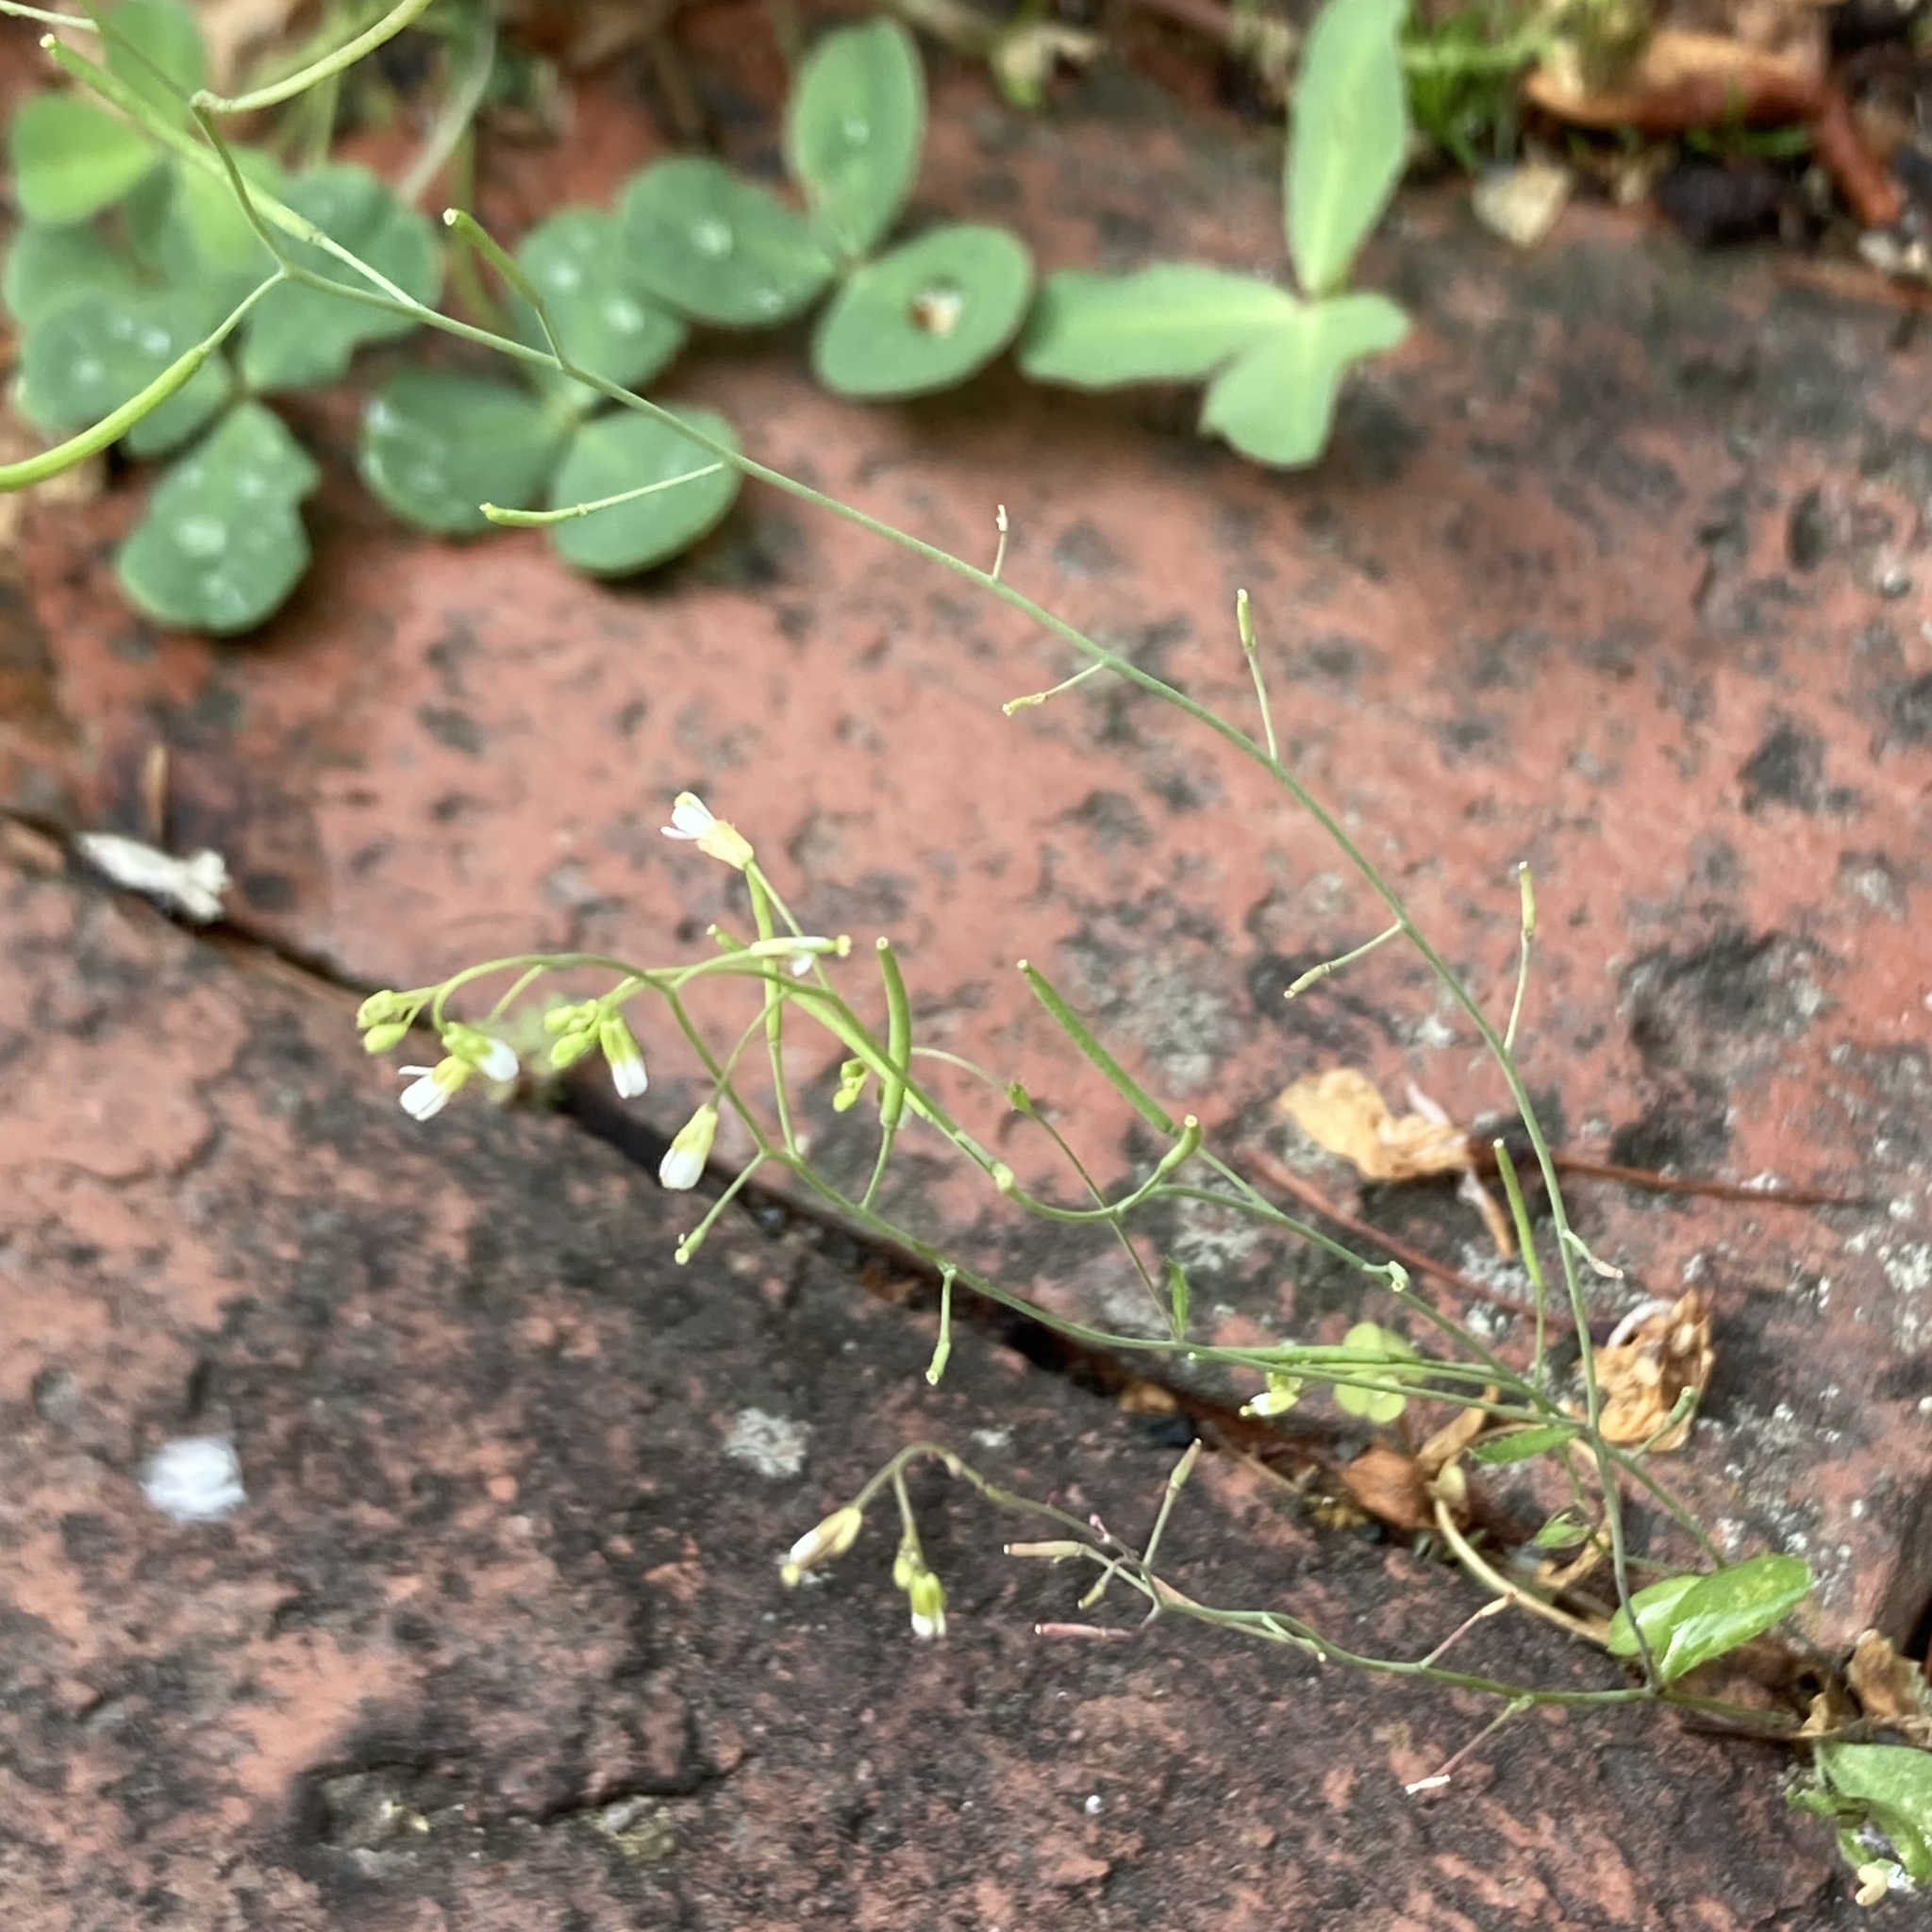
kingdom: Plantae
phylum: Tracheophyta
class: Magnoliopsida
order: Brassicales
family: Brassicaceae
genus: Arabidopsis
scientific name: Arabidopsis thaliana
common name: Thale cress
